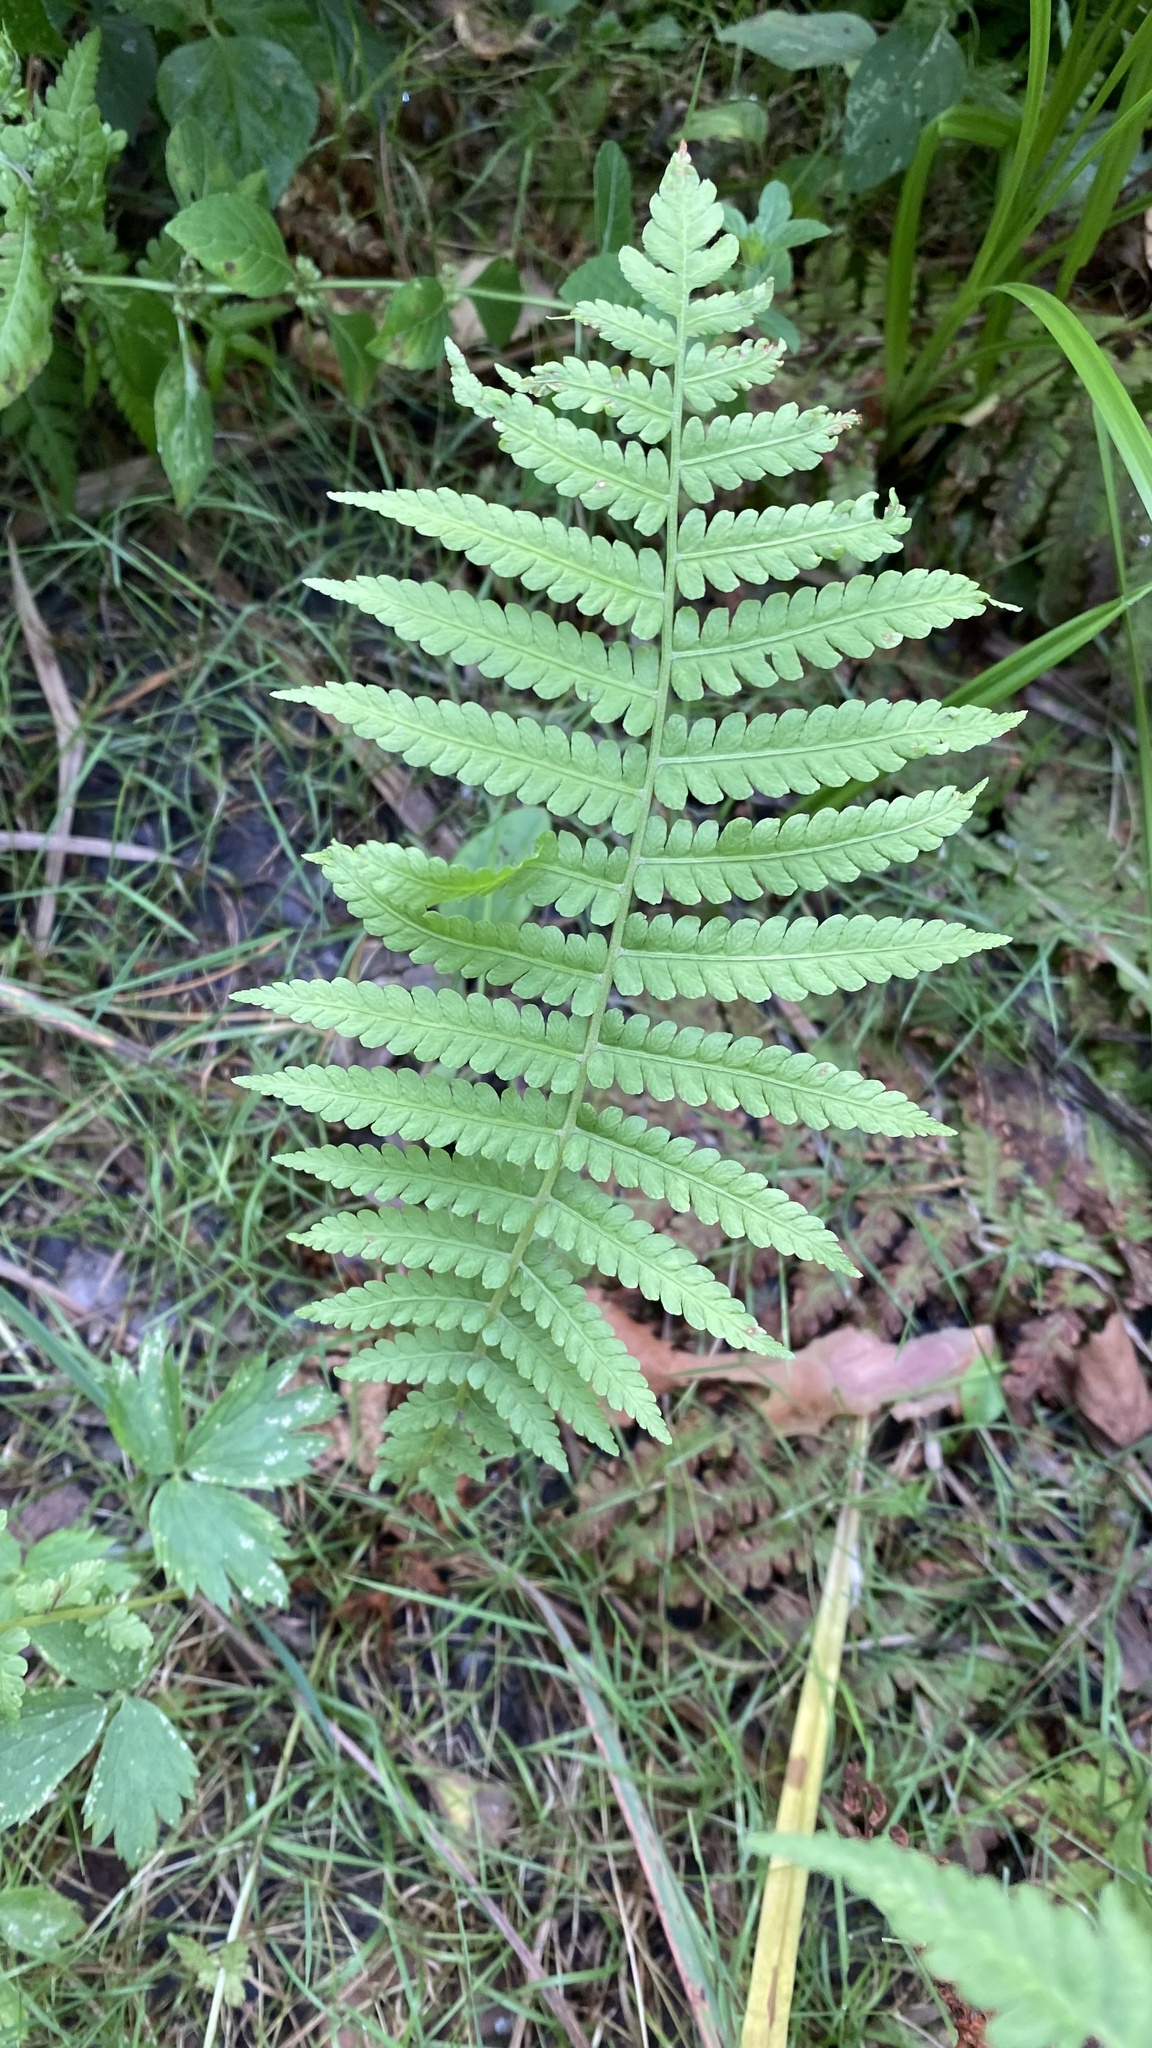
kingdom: Plantae
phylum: Tracheophyta
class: Polypodiopsida
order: Polypodiales
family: Onocleaceae
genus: Matteuccia
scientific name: Matteuccia struthiopteris
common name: Ostrich fern
